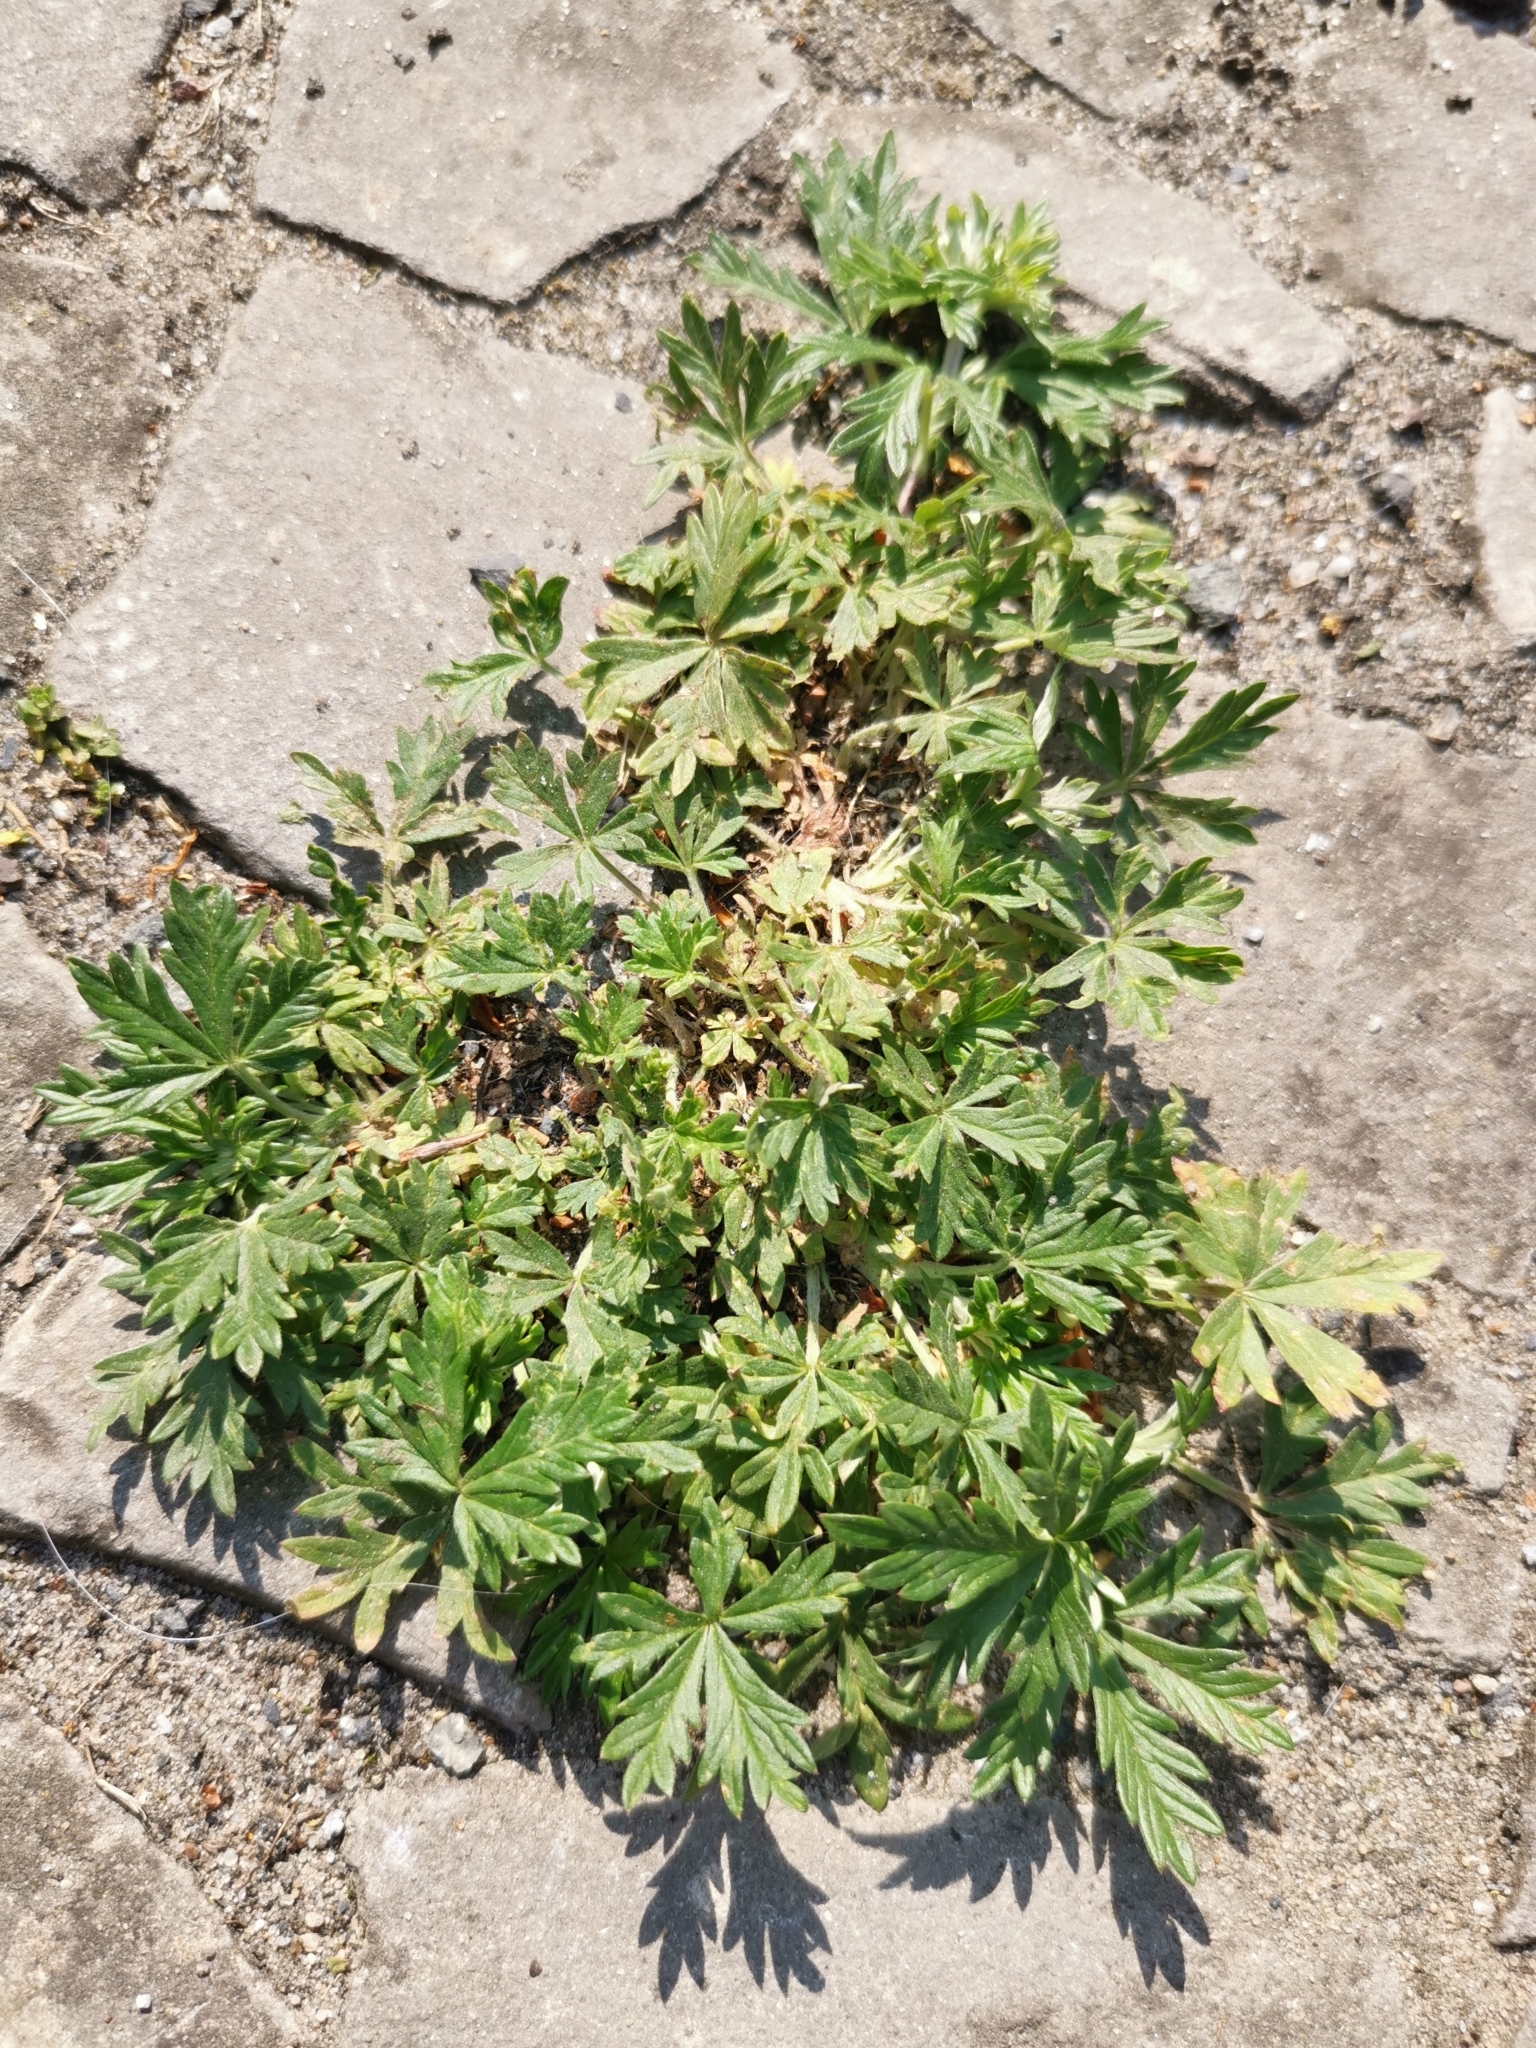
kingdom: Plantae
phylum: Tracheophyta
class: Magnoliopsida
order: Rosales
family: Rosaceae
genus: Potentilla
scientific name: Potentilla argentea
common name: Hoary cinquefoil
